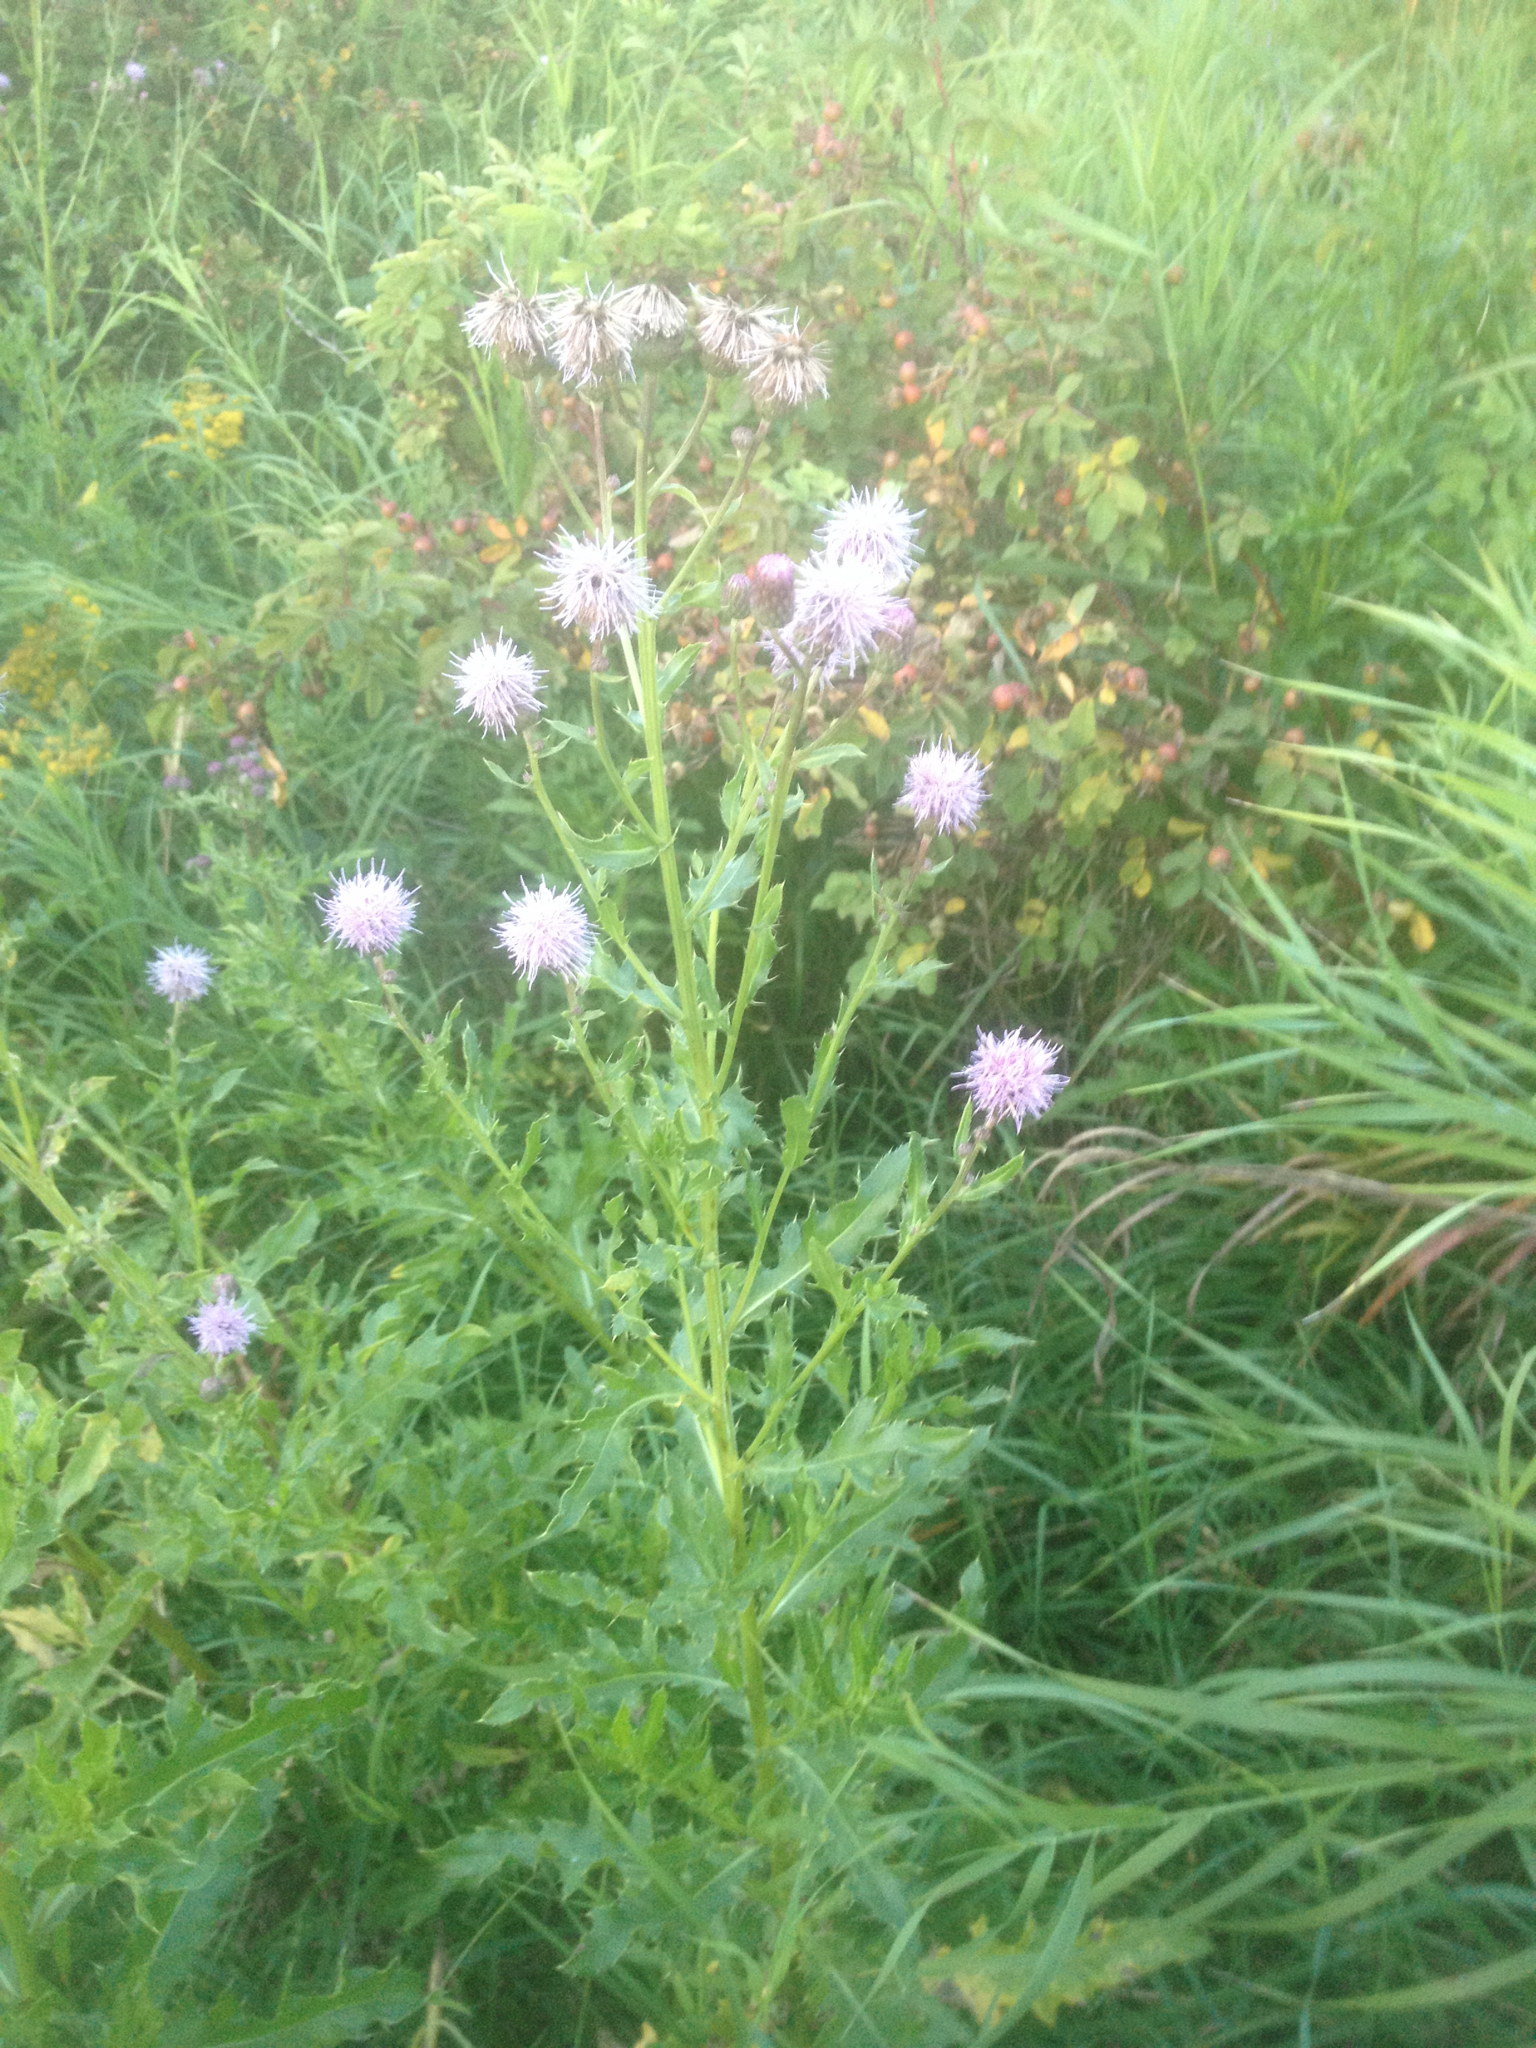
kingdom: Plantae
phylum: Tracheophyta
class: Magnoliopsida
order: Asterales
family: Asteraceae
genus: Cirsium
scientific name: Cirsium arvense
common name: Creeping thistle
